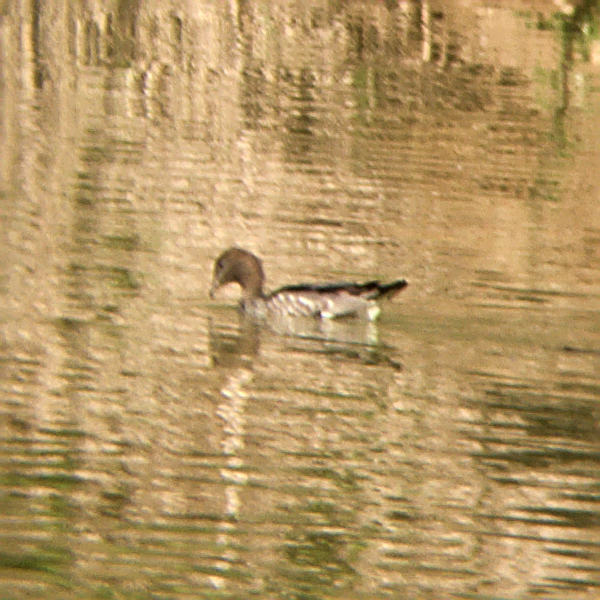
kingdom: Animalia
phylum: Chordata
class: Aves
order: Anseriformes
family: Anatidae
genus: Chenonetta
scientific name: Chenonetta jubata
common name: Maned duck
